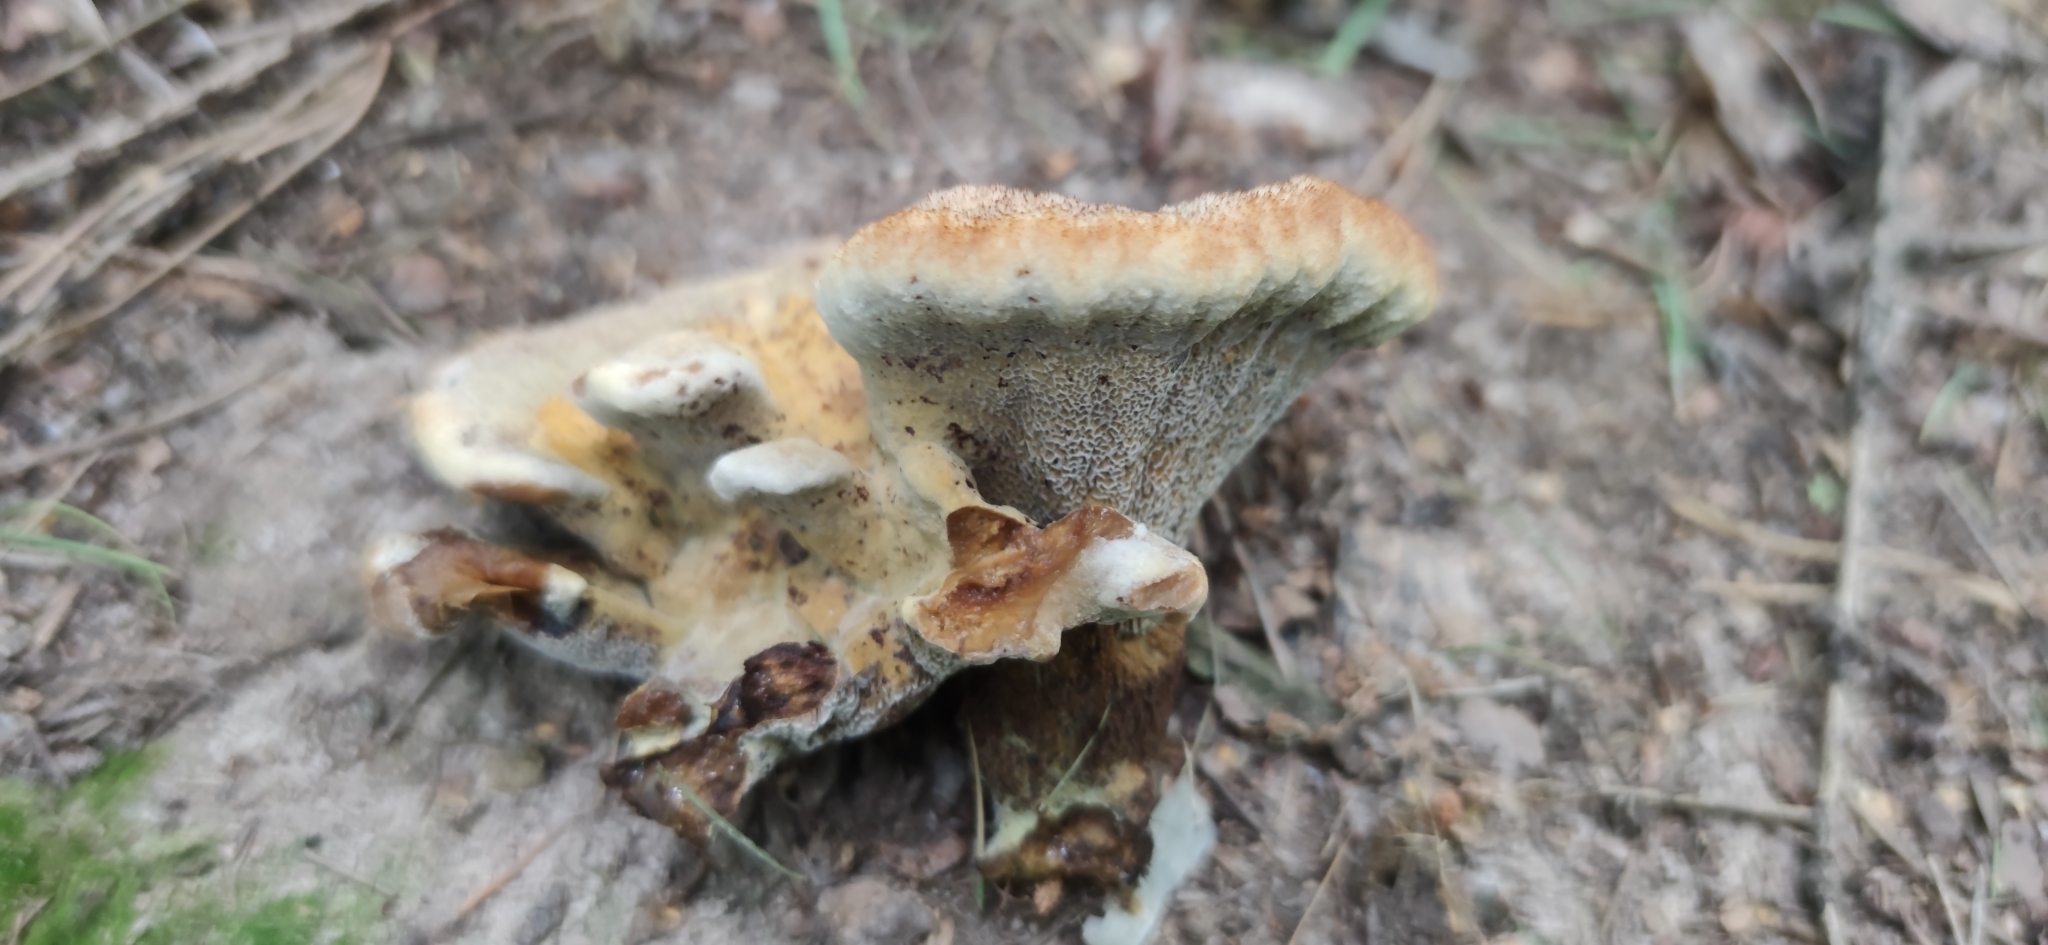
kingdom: Fungi
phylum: Basidiomycota
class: Agaricomycetes
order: Polyporales
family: Laetiporaceae
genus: Phaeolus
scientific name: Phaeolus schweinitzii
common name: Dyer's mazegill
